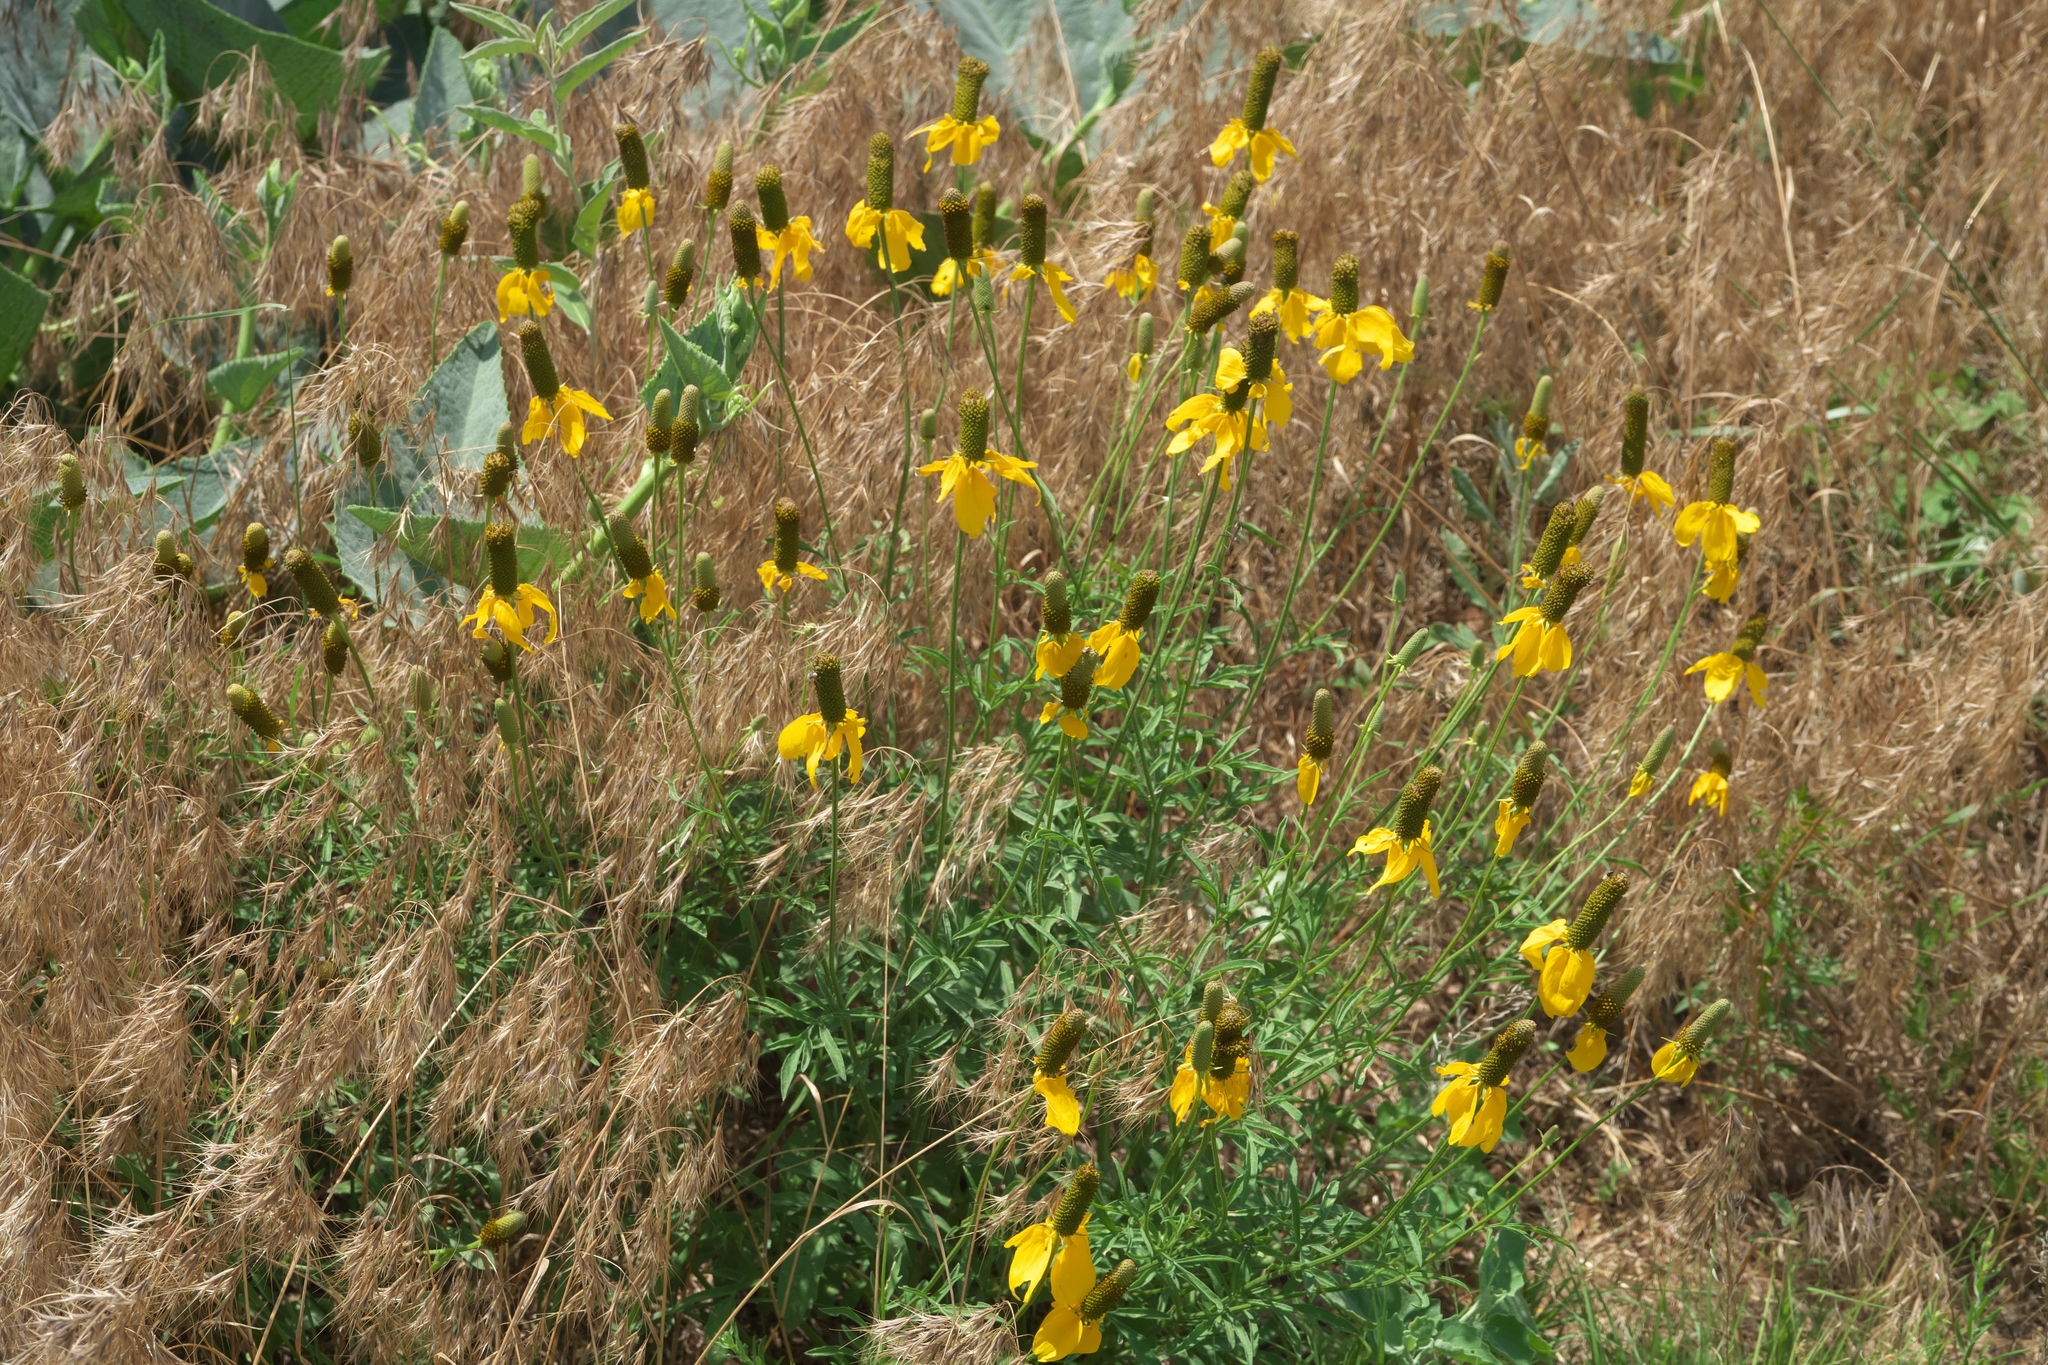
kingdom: Plantae
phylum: Tracheophyta
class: Magnoliopsida
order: Asterales
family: Asteraceae
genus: Ratibida
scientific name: Ratibida columnifera
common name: Prairie coneflower
